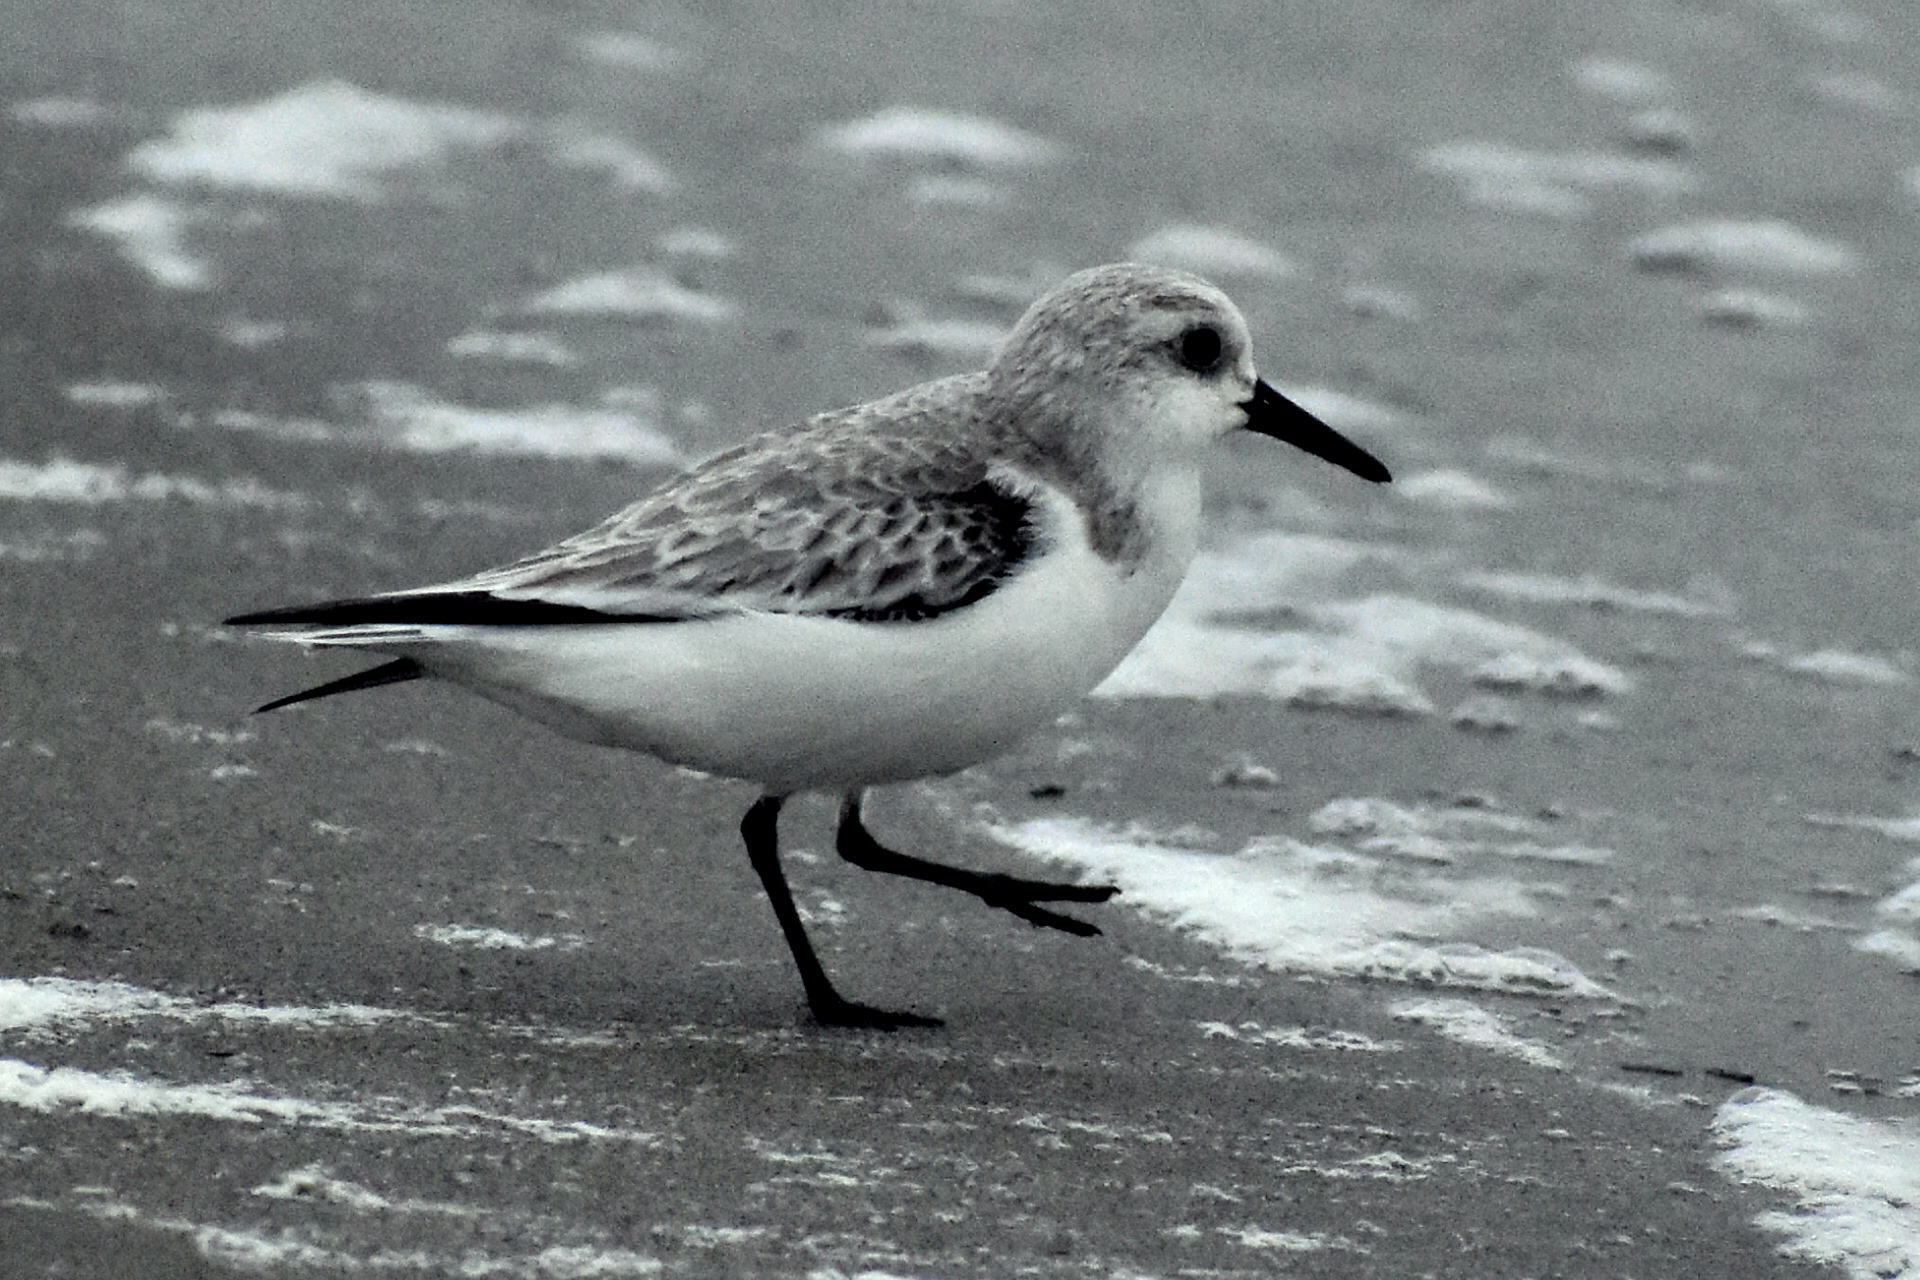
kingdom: Animalia
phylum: Chordata
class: Aves
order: Charadriiformes
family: Scolopacidae
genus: Calidris
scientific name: Calidris alba
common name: Sanderling
